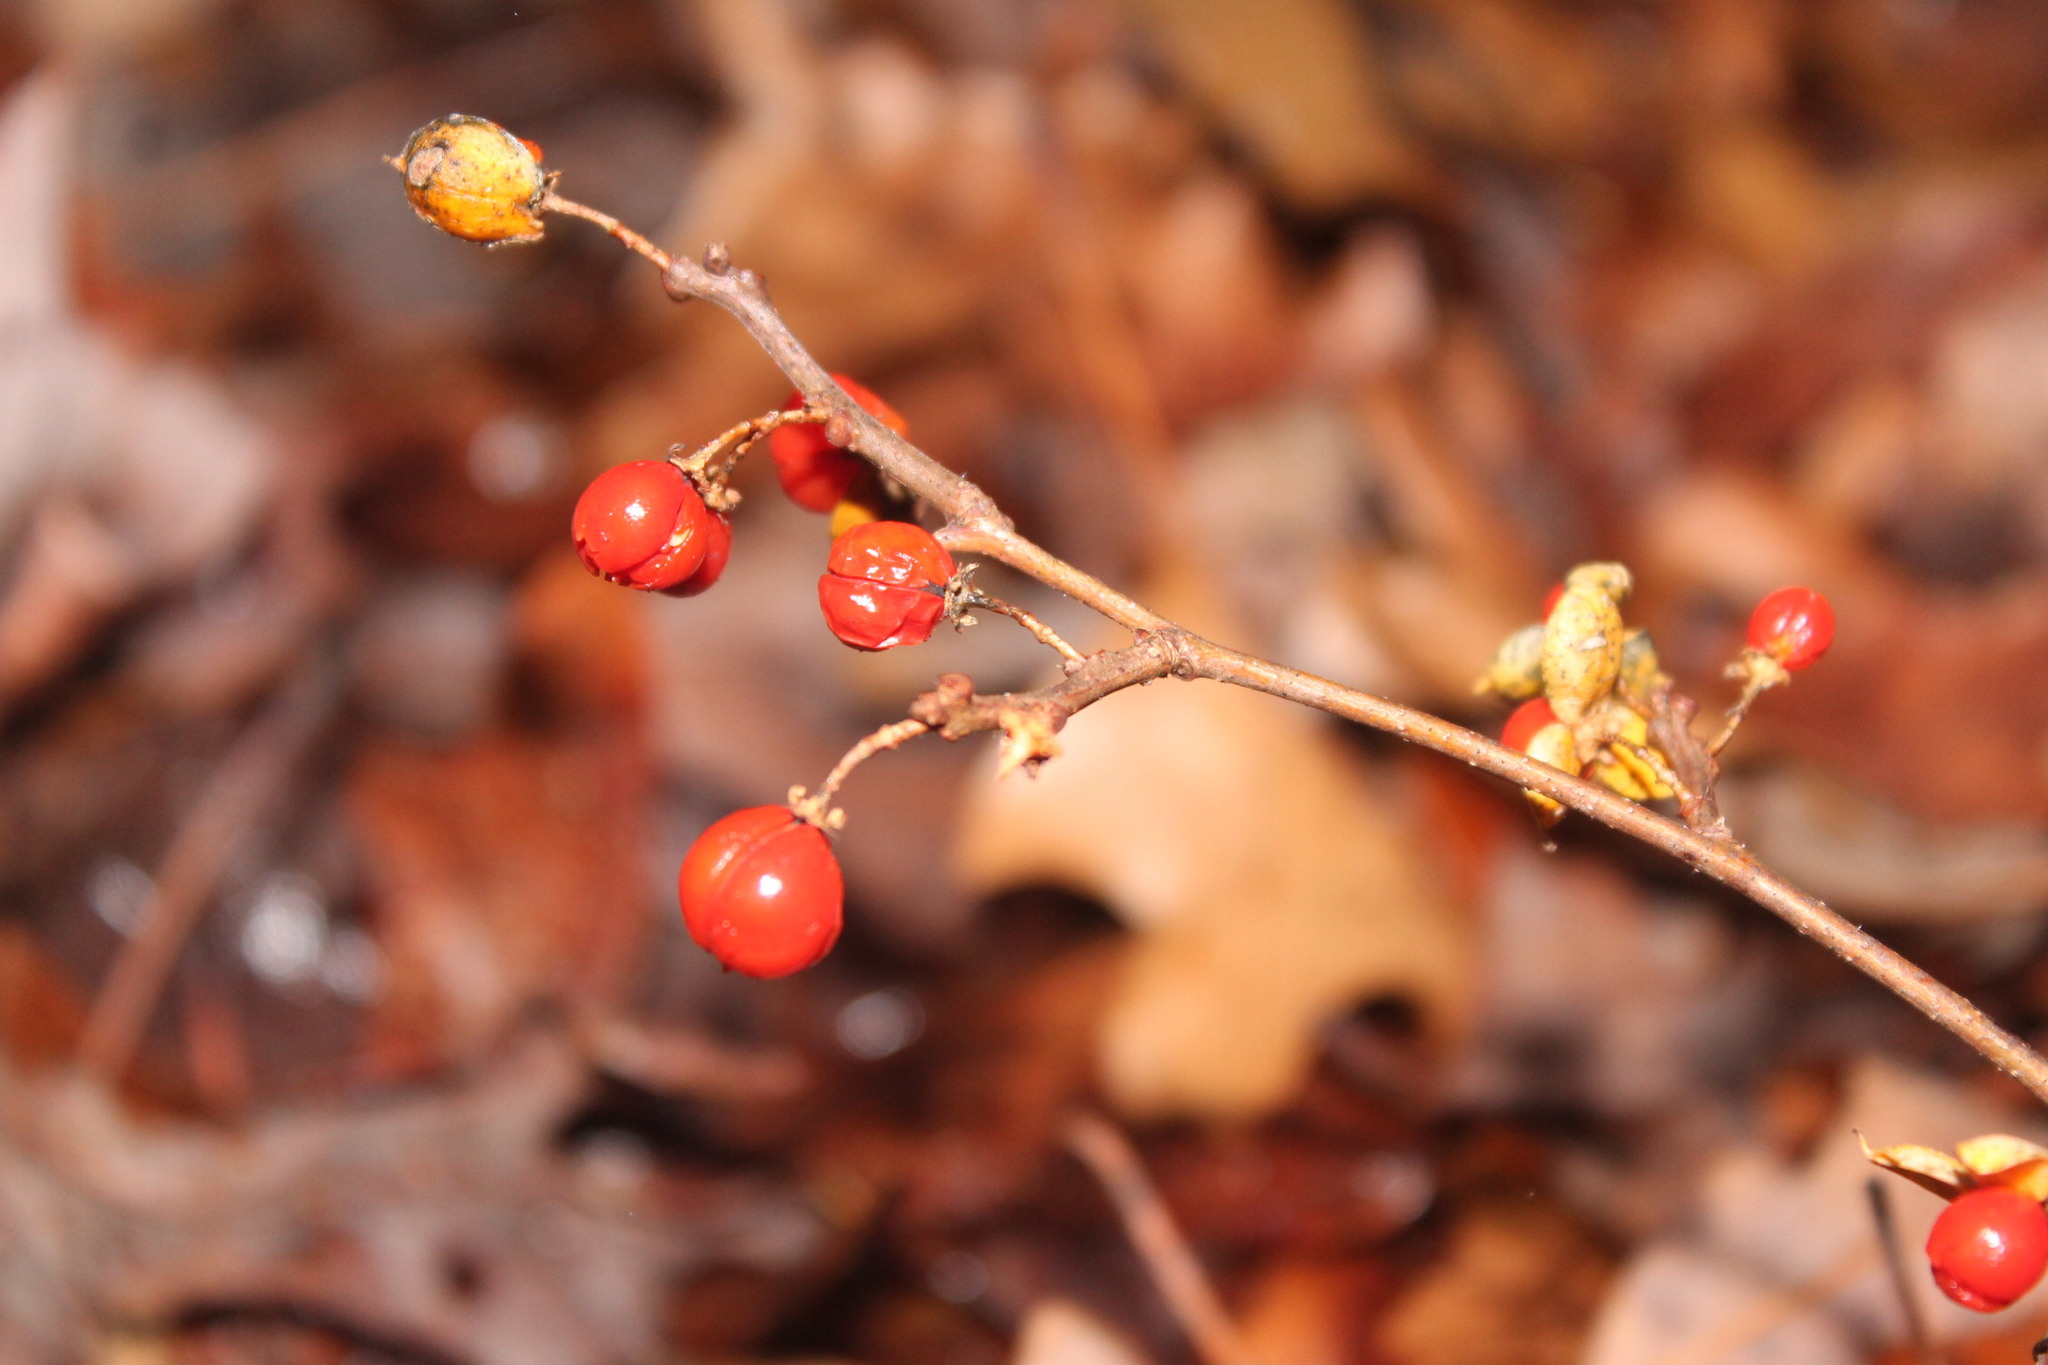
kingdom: Plantae
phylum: Tracheophyta
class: Magnoliopsida
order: Celastrales
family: Celastraceae
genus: Celastrus
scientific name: Celastrus orbiculatus
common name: Oriental bittersweet
